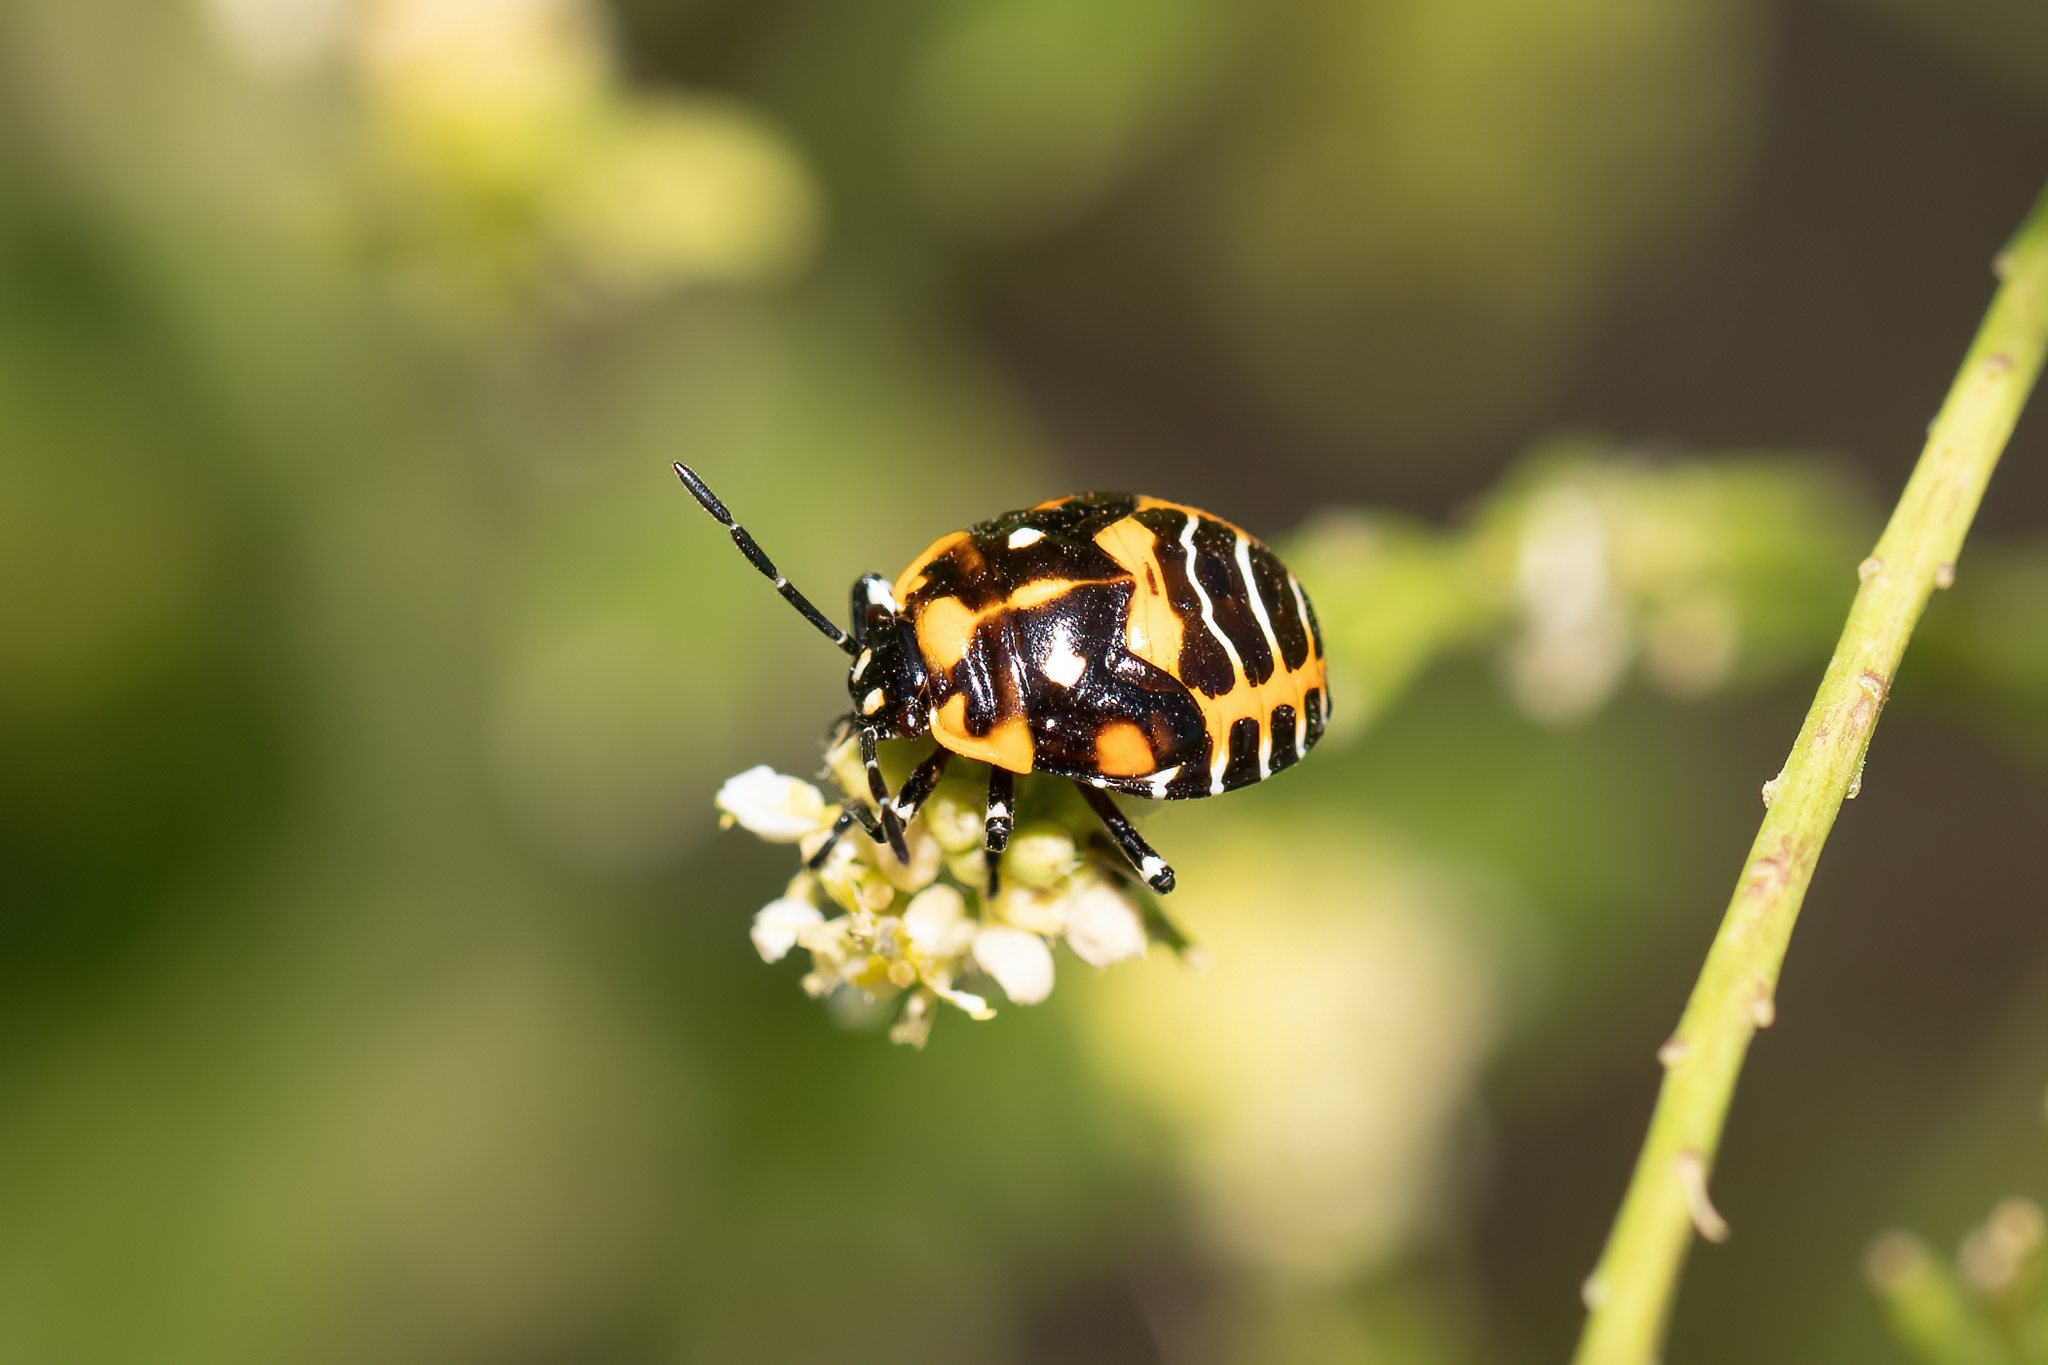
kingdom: Animalia
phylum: Arthropoda
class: Insecta
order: Hemiptera
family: Pentatomidae
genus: Murgantia
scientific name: Murgantia histrionica
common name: Harlequin bug
